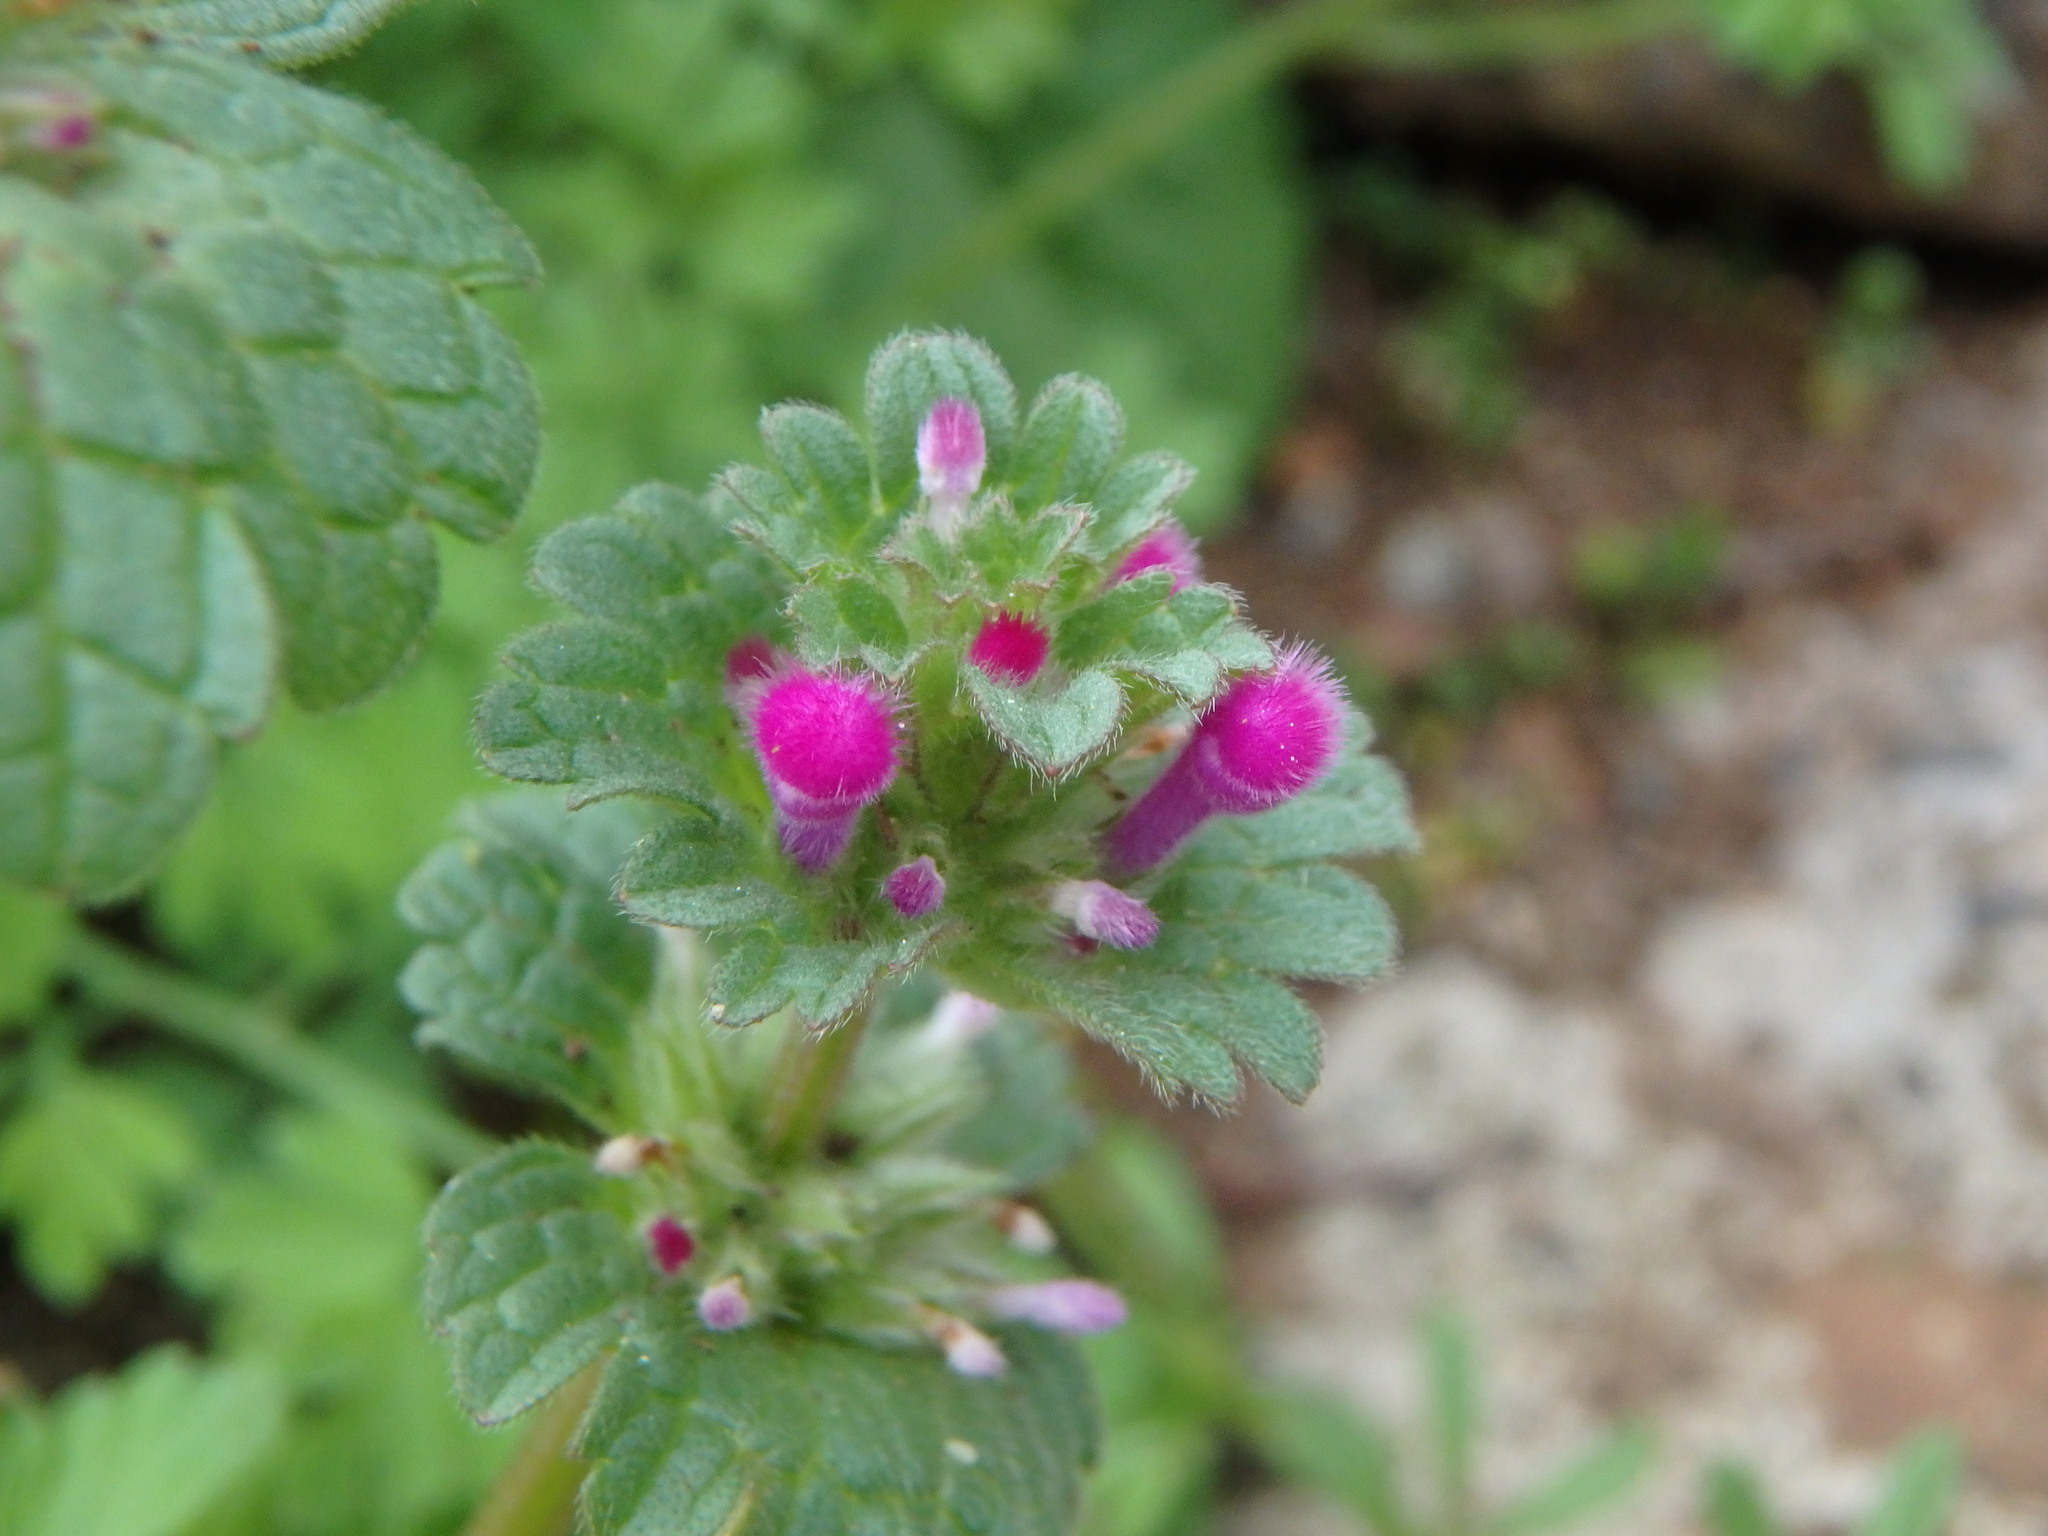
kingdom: Plantae
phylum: Tracheophyta
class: Magnoliopsida
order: Lamiales
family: Lamiaceae
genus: Lamium
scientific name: Lamium amplexicaule
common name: Henbit dead-nettle
